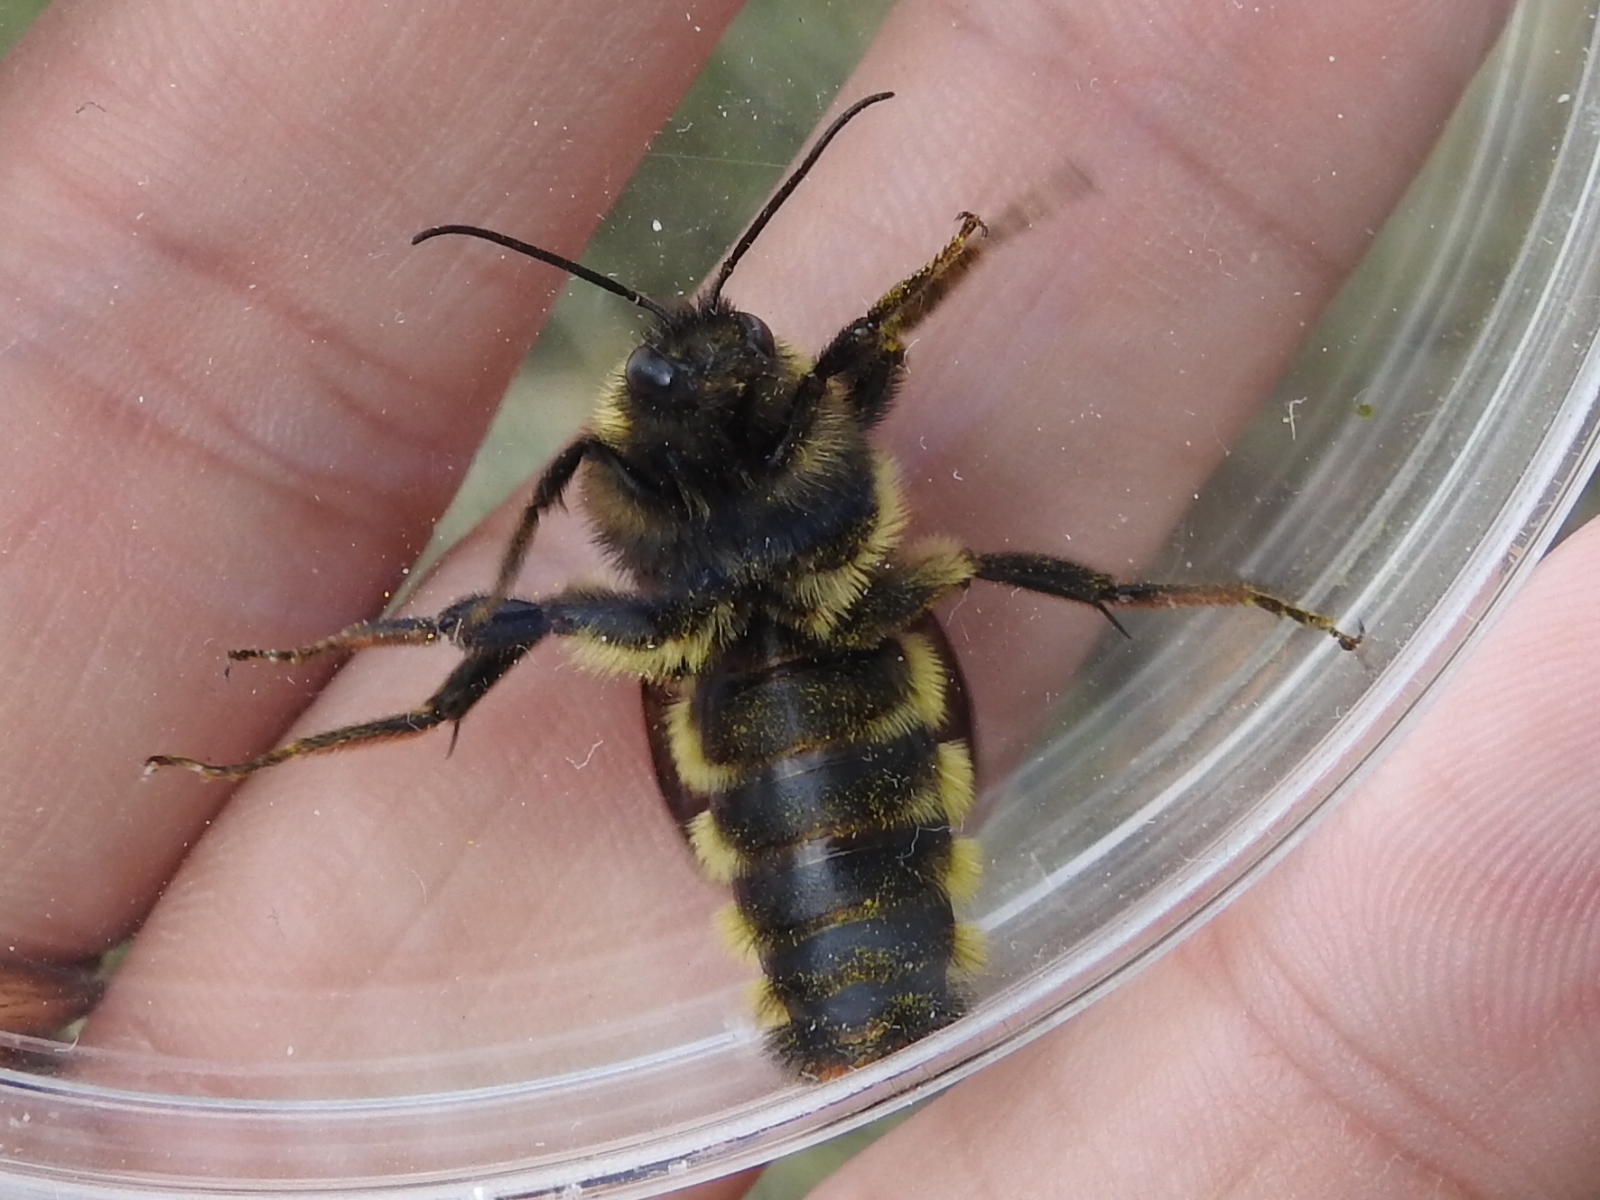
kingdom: Animalia
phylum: Arthropoda
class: Insecta
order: Hymenoptera
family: Apidae
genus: Bombus
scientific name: Bombus pensylvanicus
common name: Bumble bee
